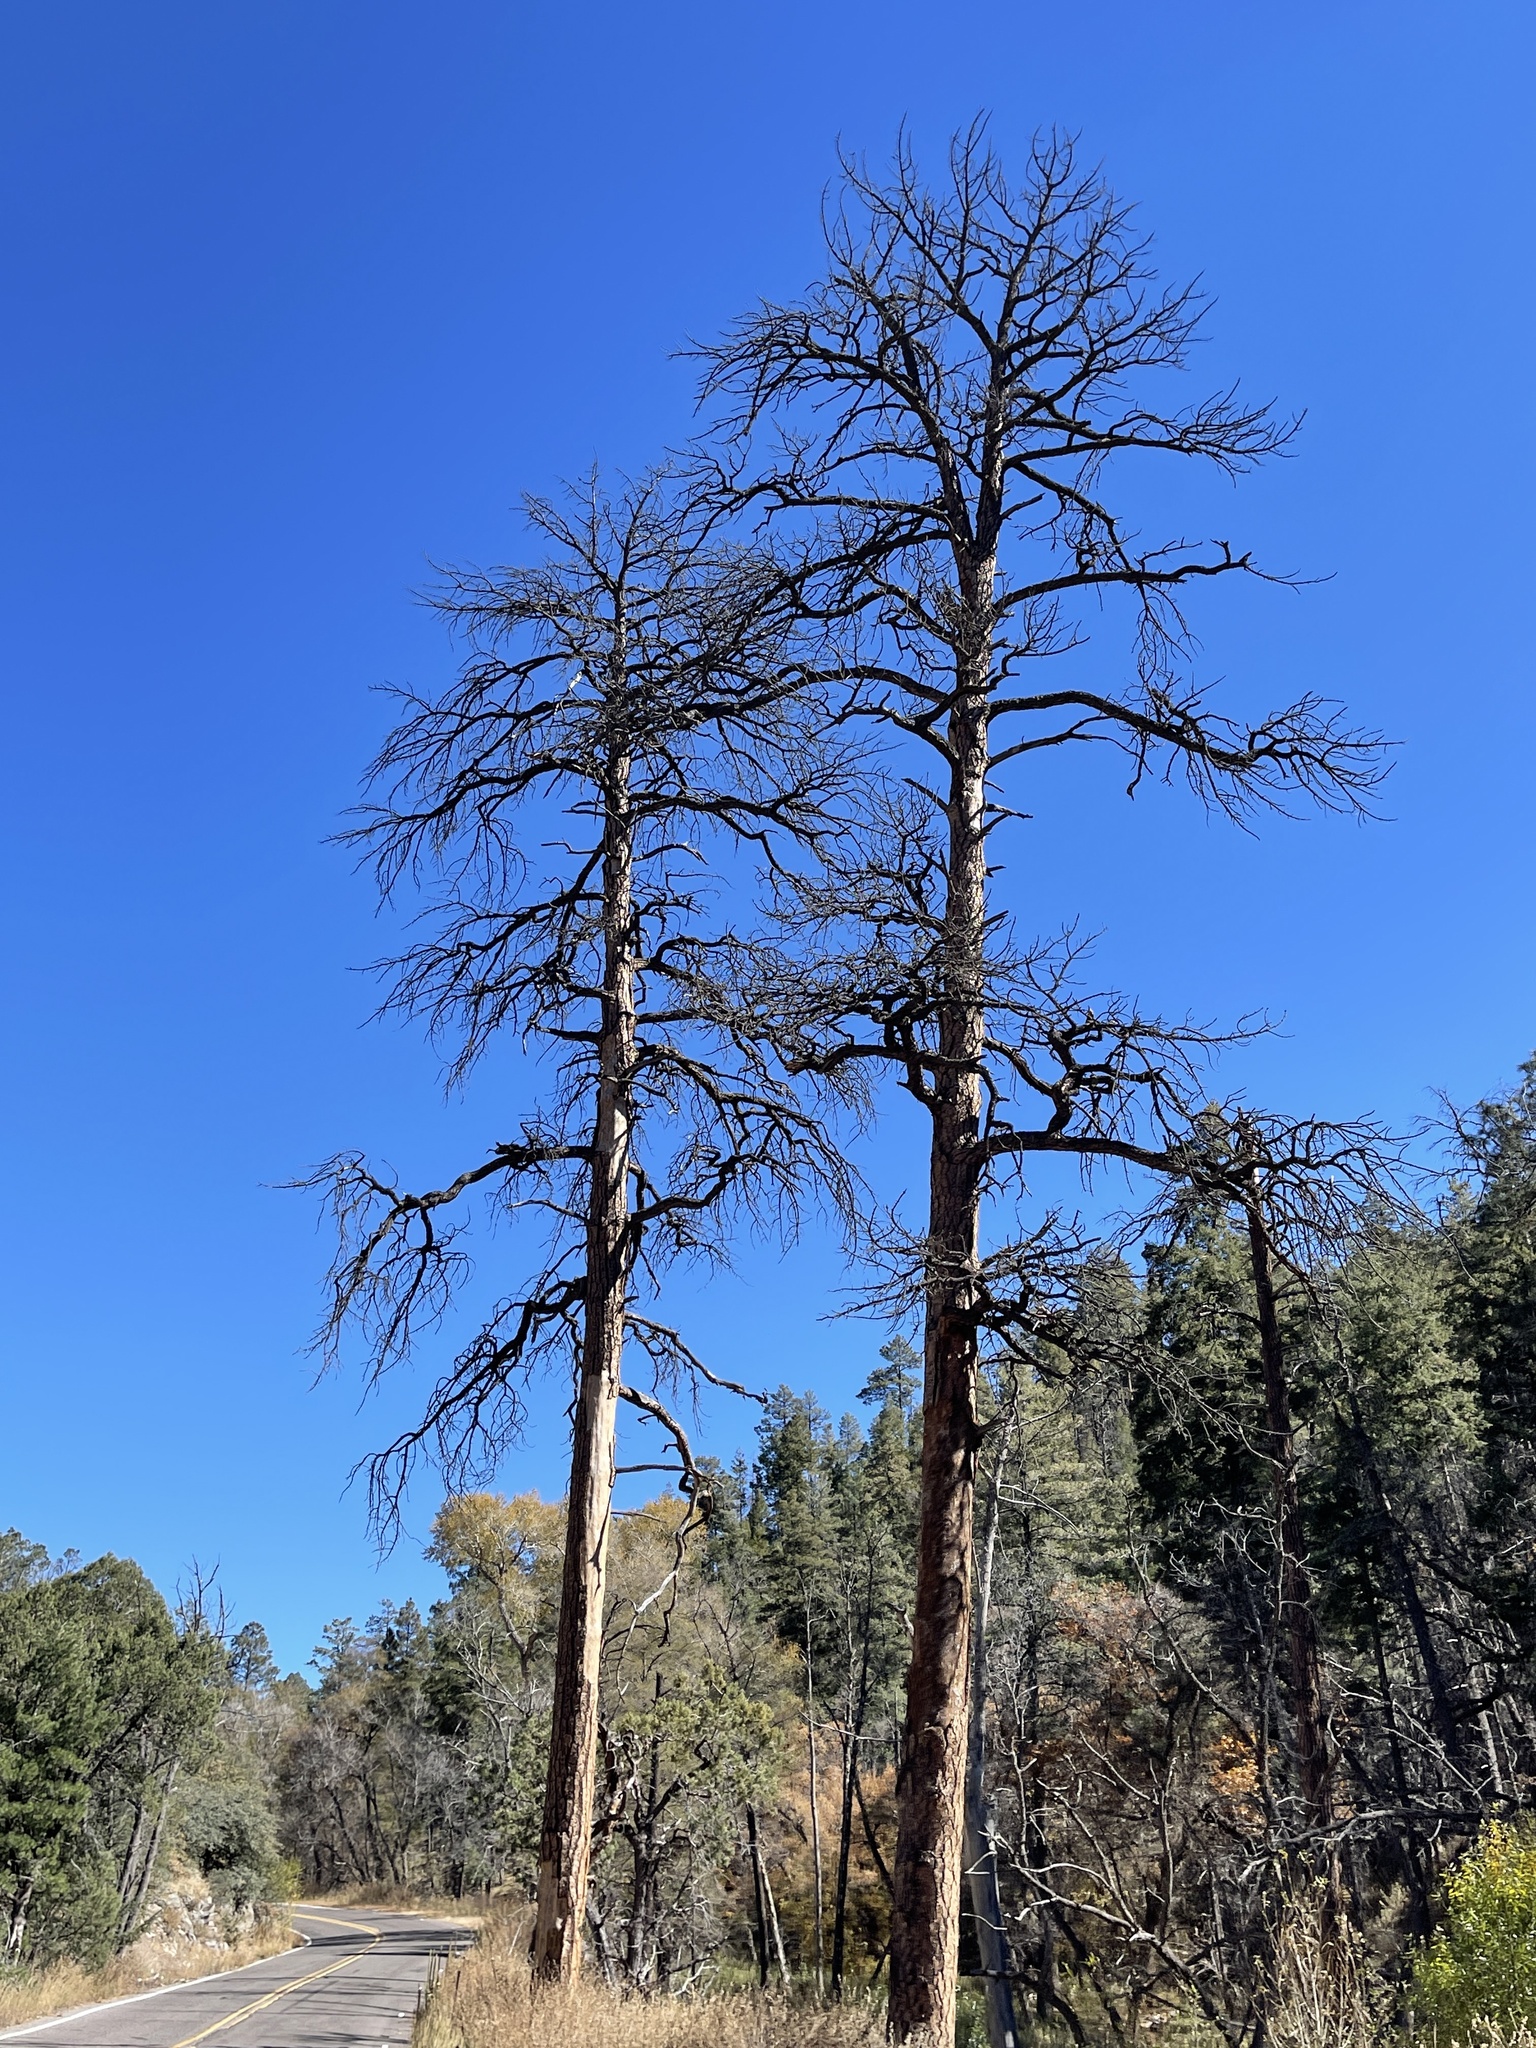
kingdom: Plantae
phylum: Tracheophyta
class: Pinopsida
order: Pinales
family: Pinaceae
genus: Pinus
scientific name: Pinus ponderosa
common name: Western yellow-pine
